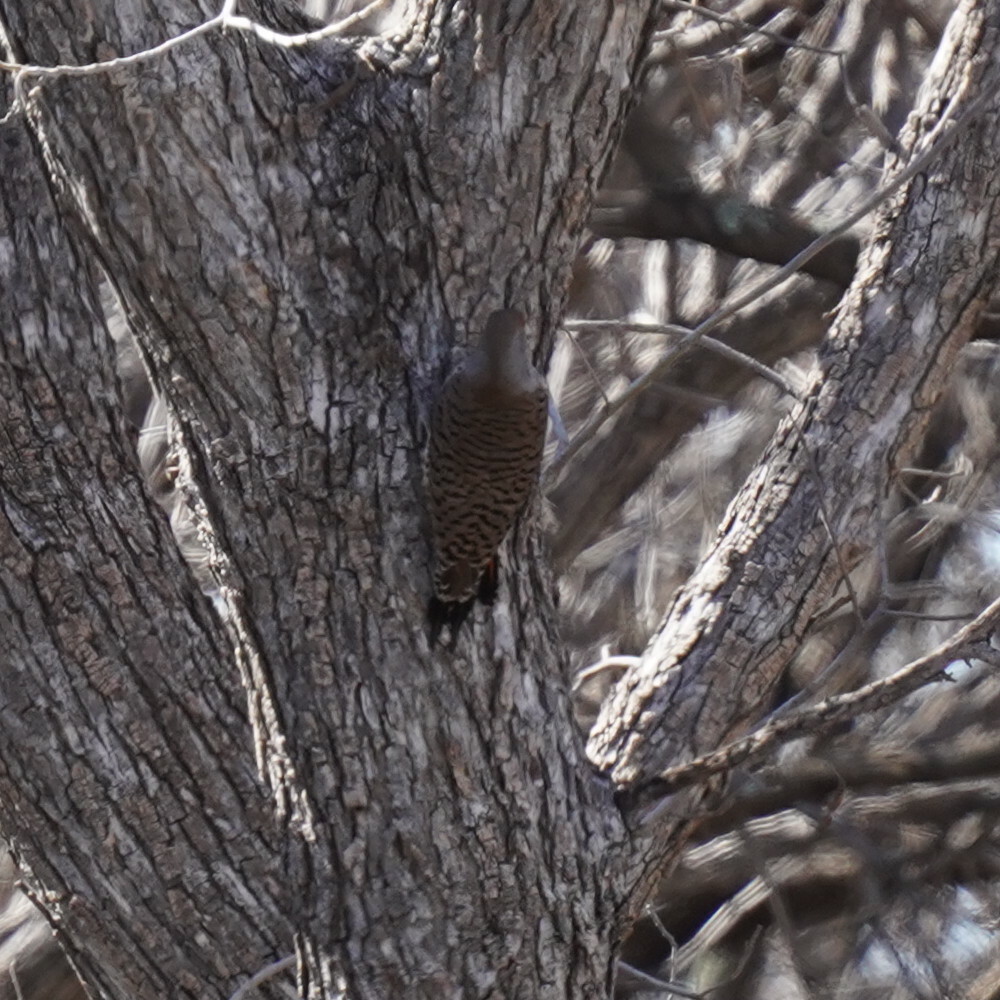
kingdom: Animalia
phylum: Chordata
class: Aves
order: Piciformes
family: Picidae
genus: Colaptes
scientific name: Colaptes auratus
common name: Northern flicker
